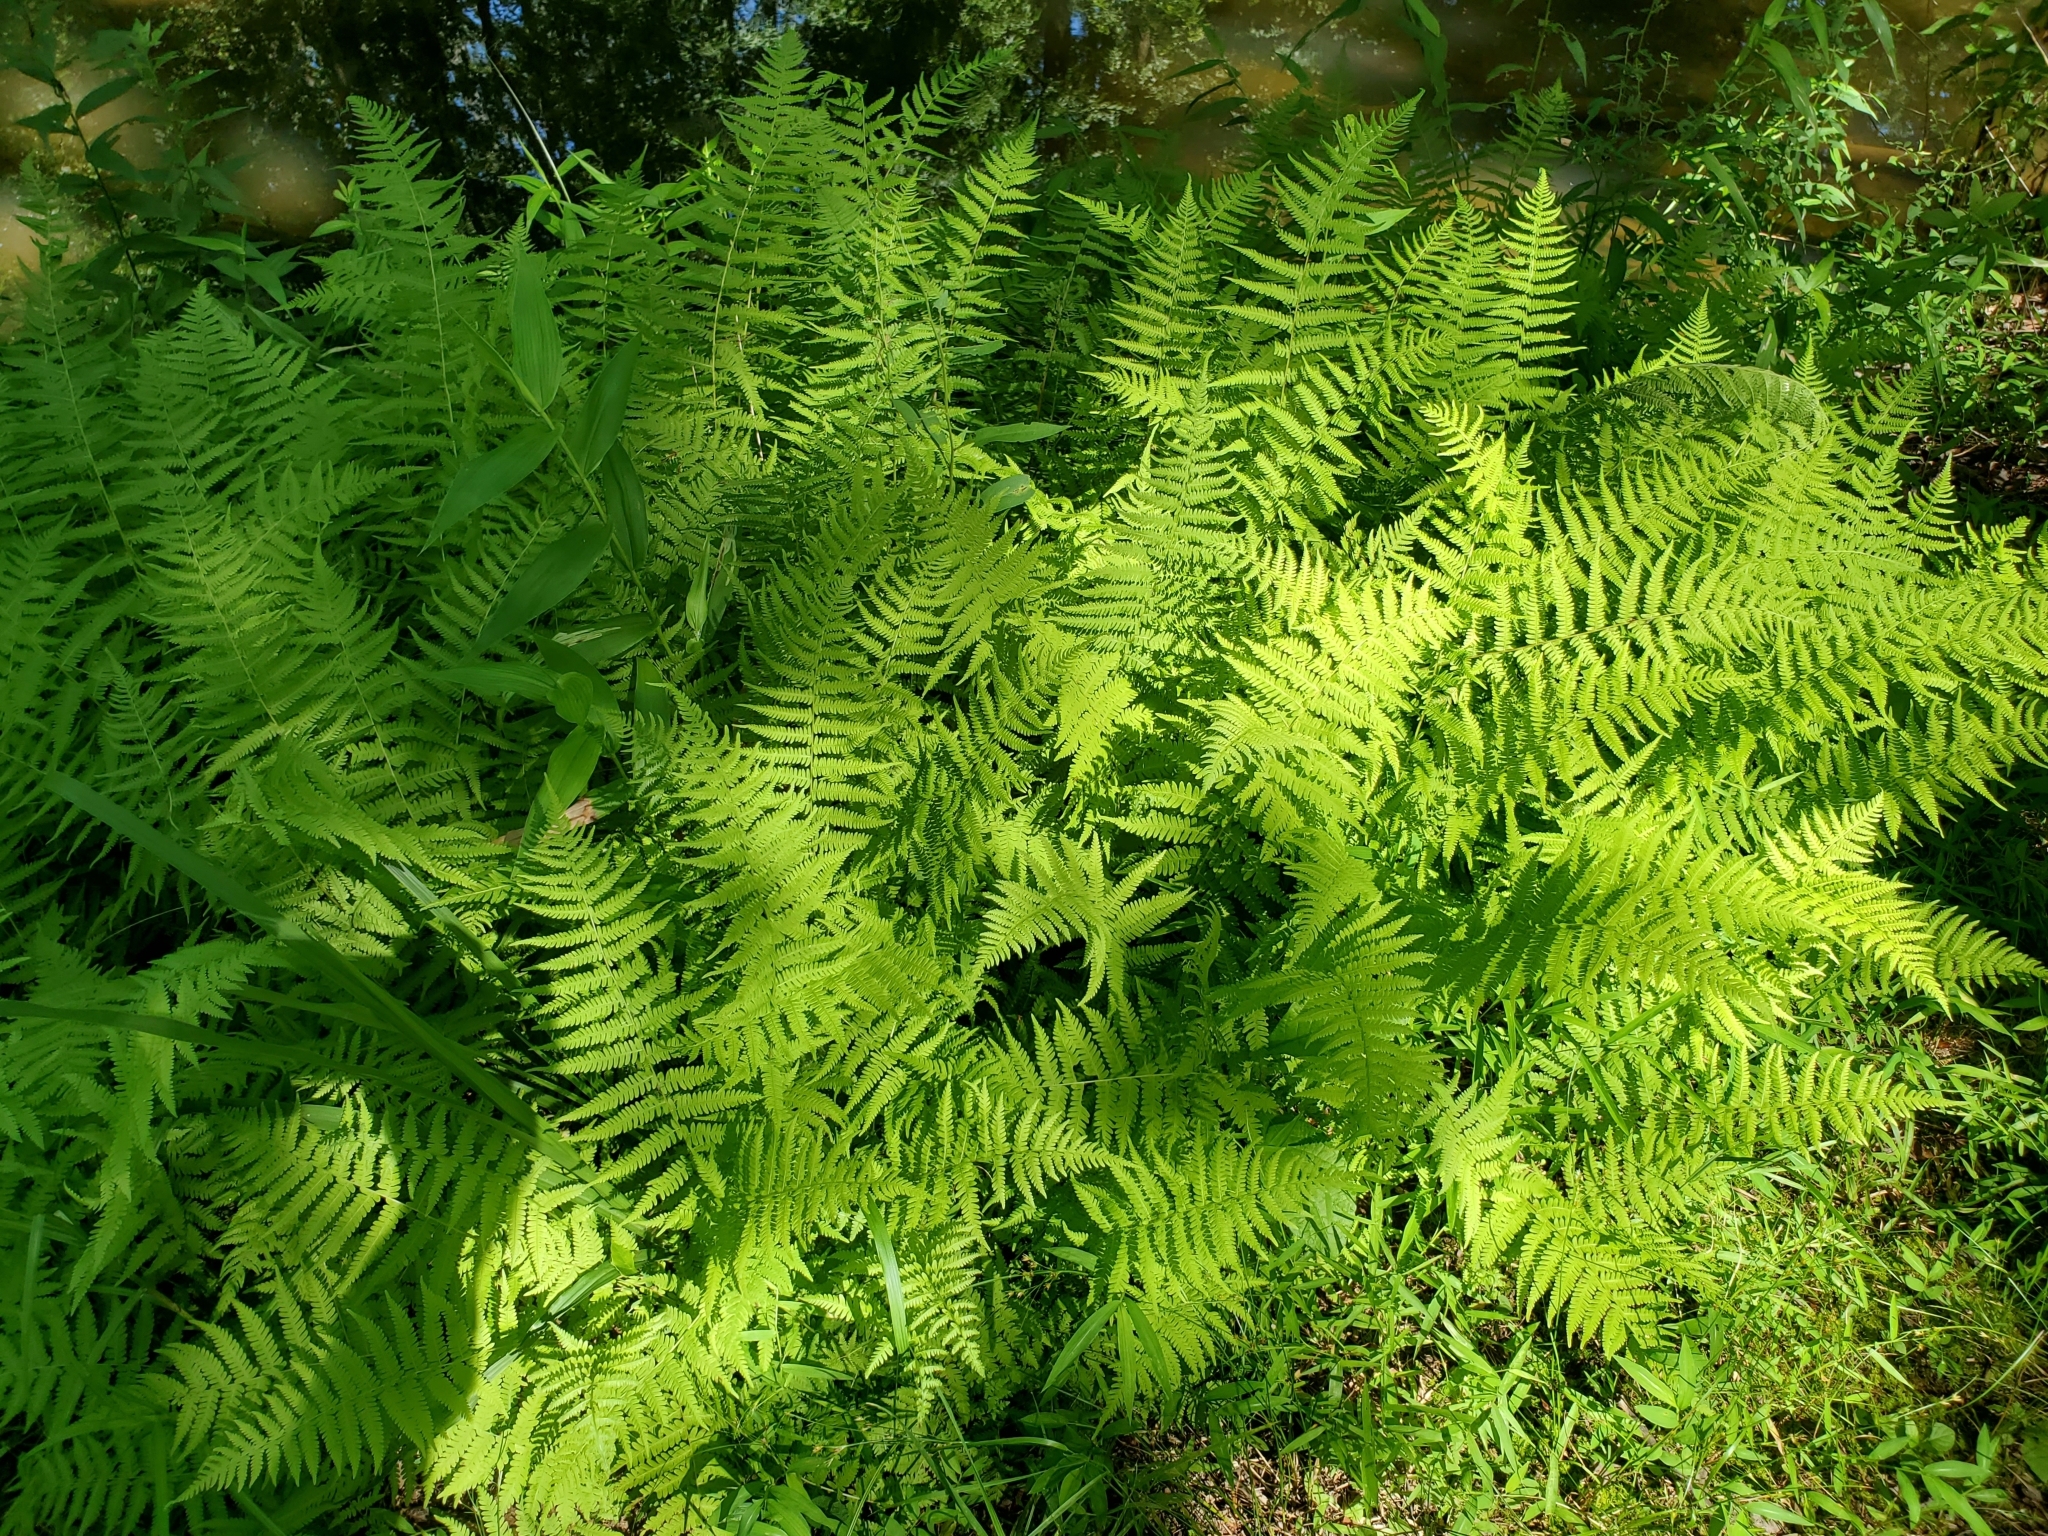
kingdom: Plantae
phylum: Tracheophyta
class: Polypodiopsida
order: Polypodiales
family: Thelypteridaceae
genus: Amauropelta
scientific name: Amauropelta noveboracensis
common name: New york fern
